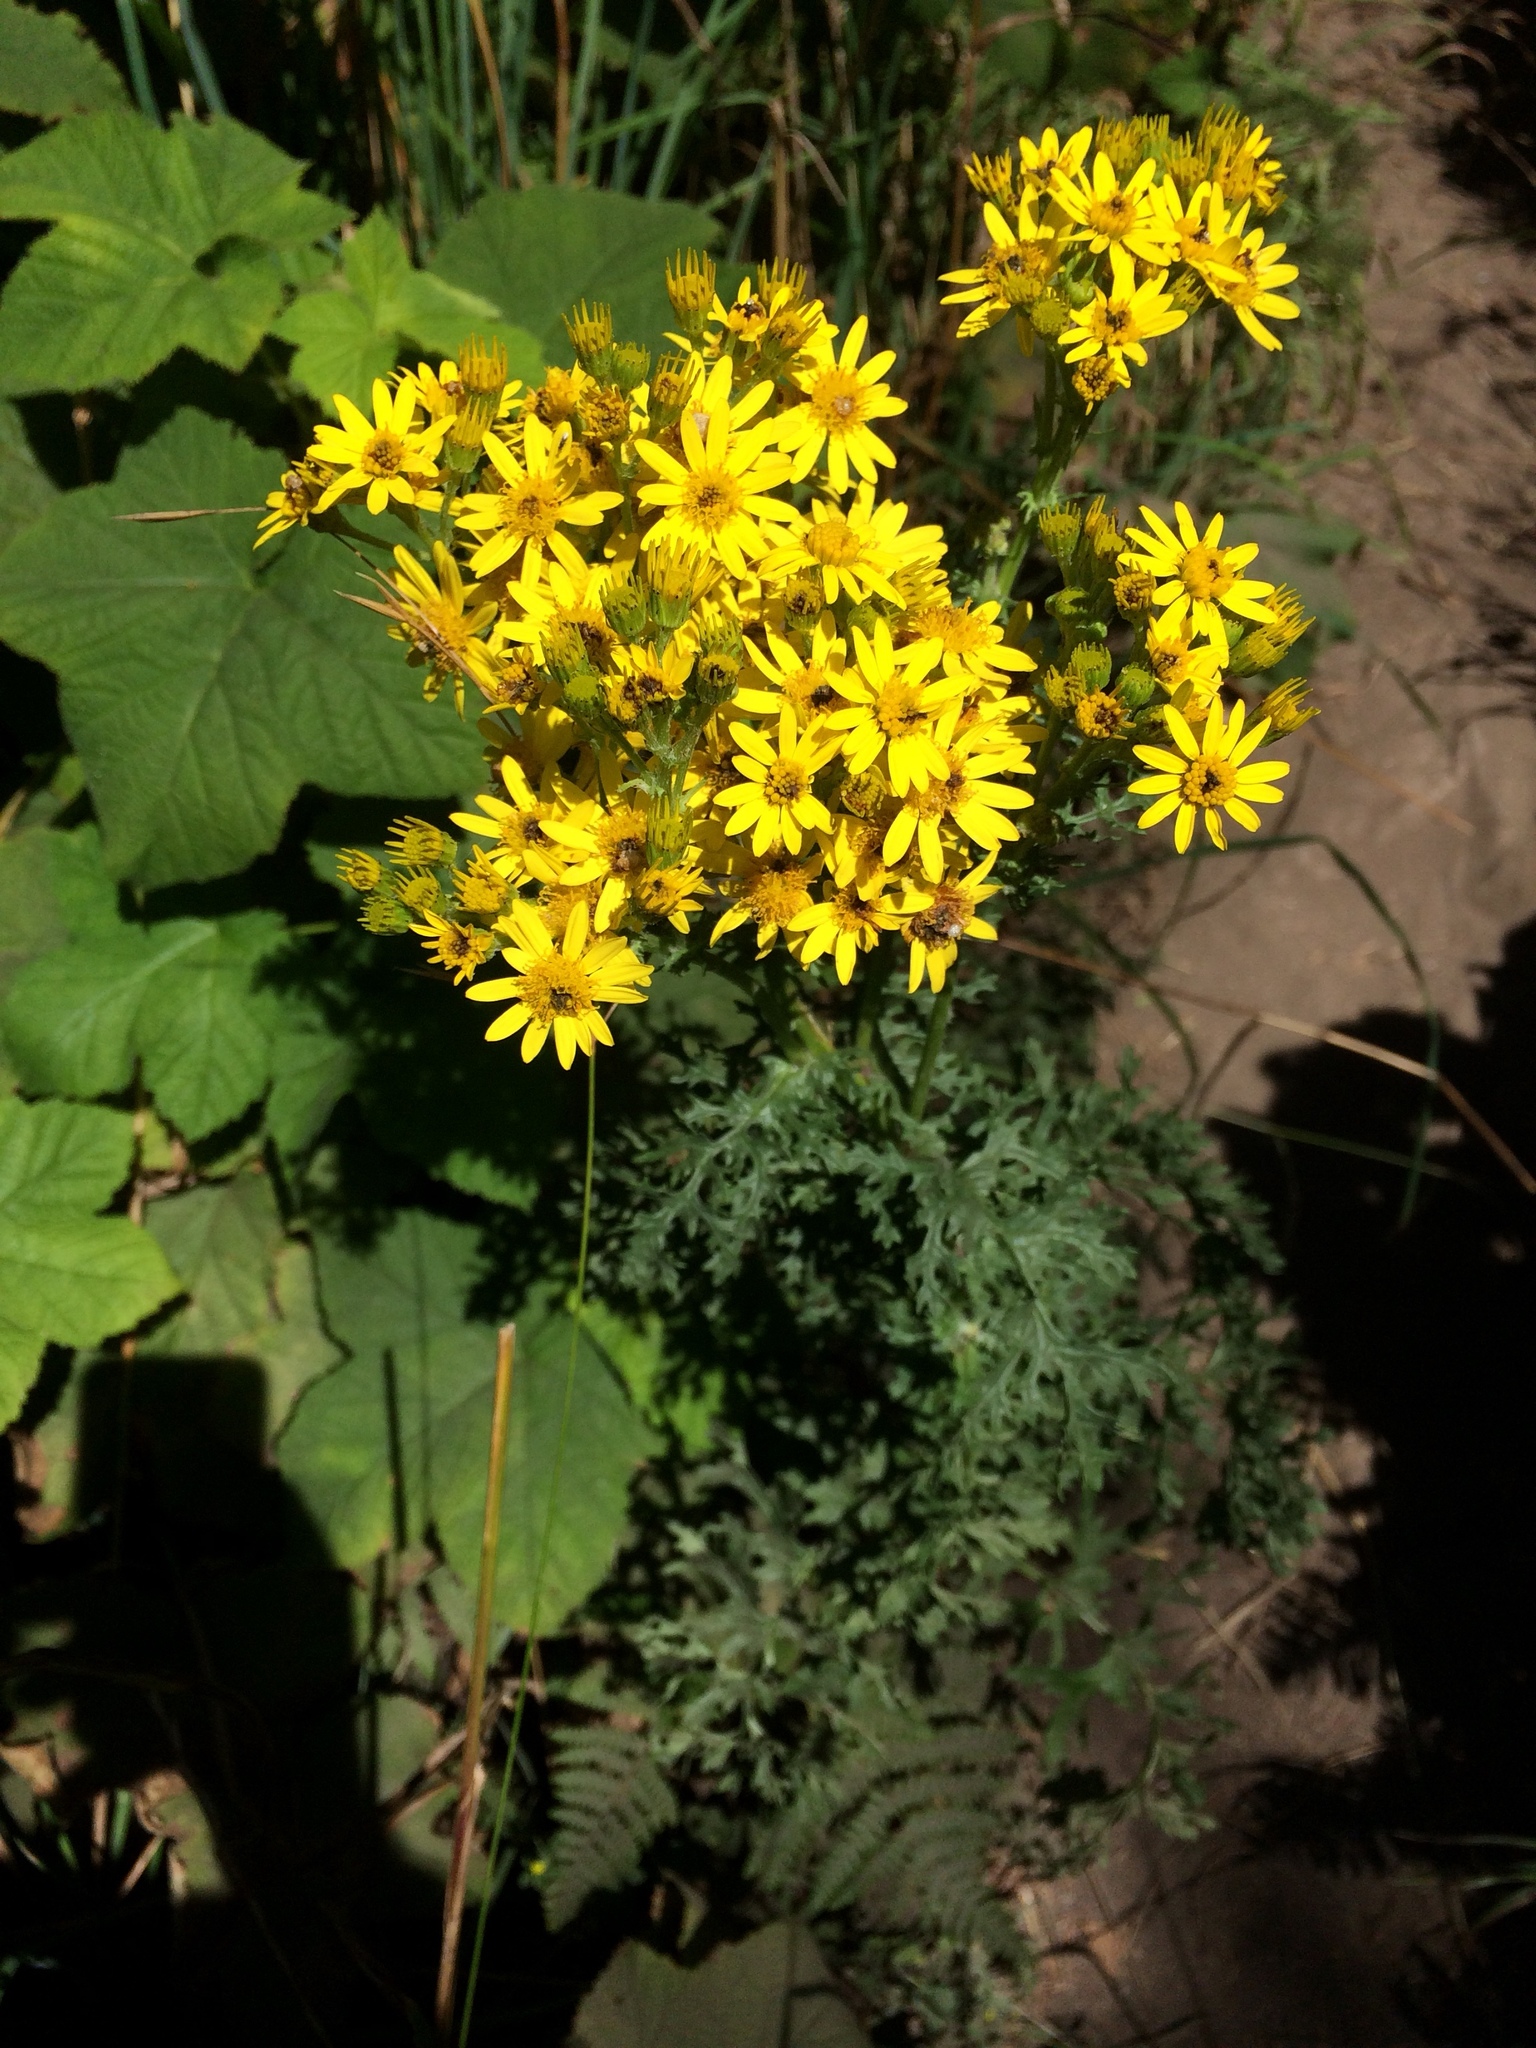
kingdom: Plantae
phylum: Tracheophyta
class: Magnoliopsida
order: Asterales
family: Asteraceae
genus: Jacobaea
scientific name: Jacobaea vulgaris
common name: Stinking willie
